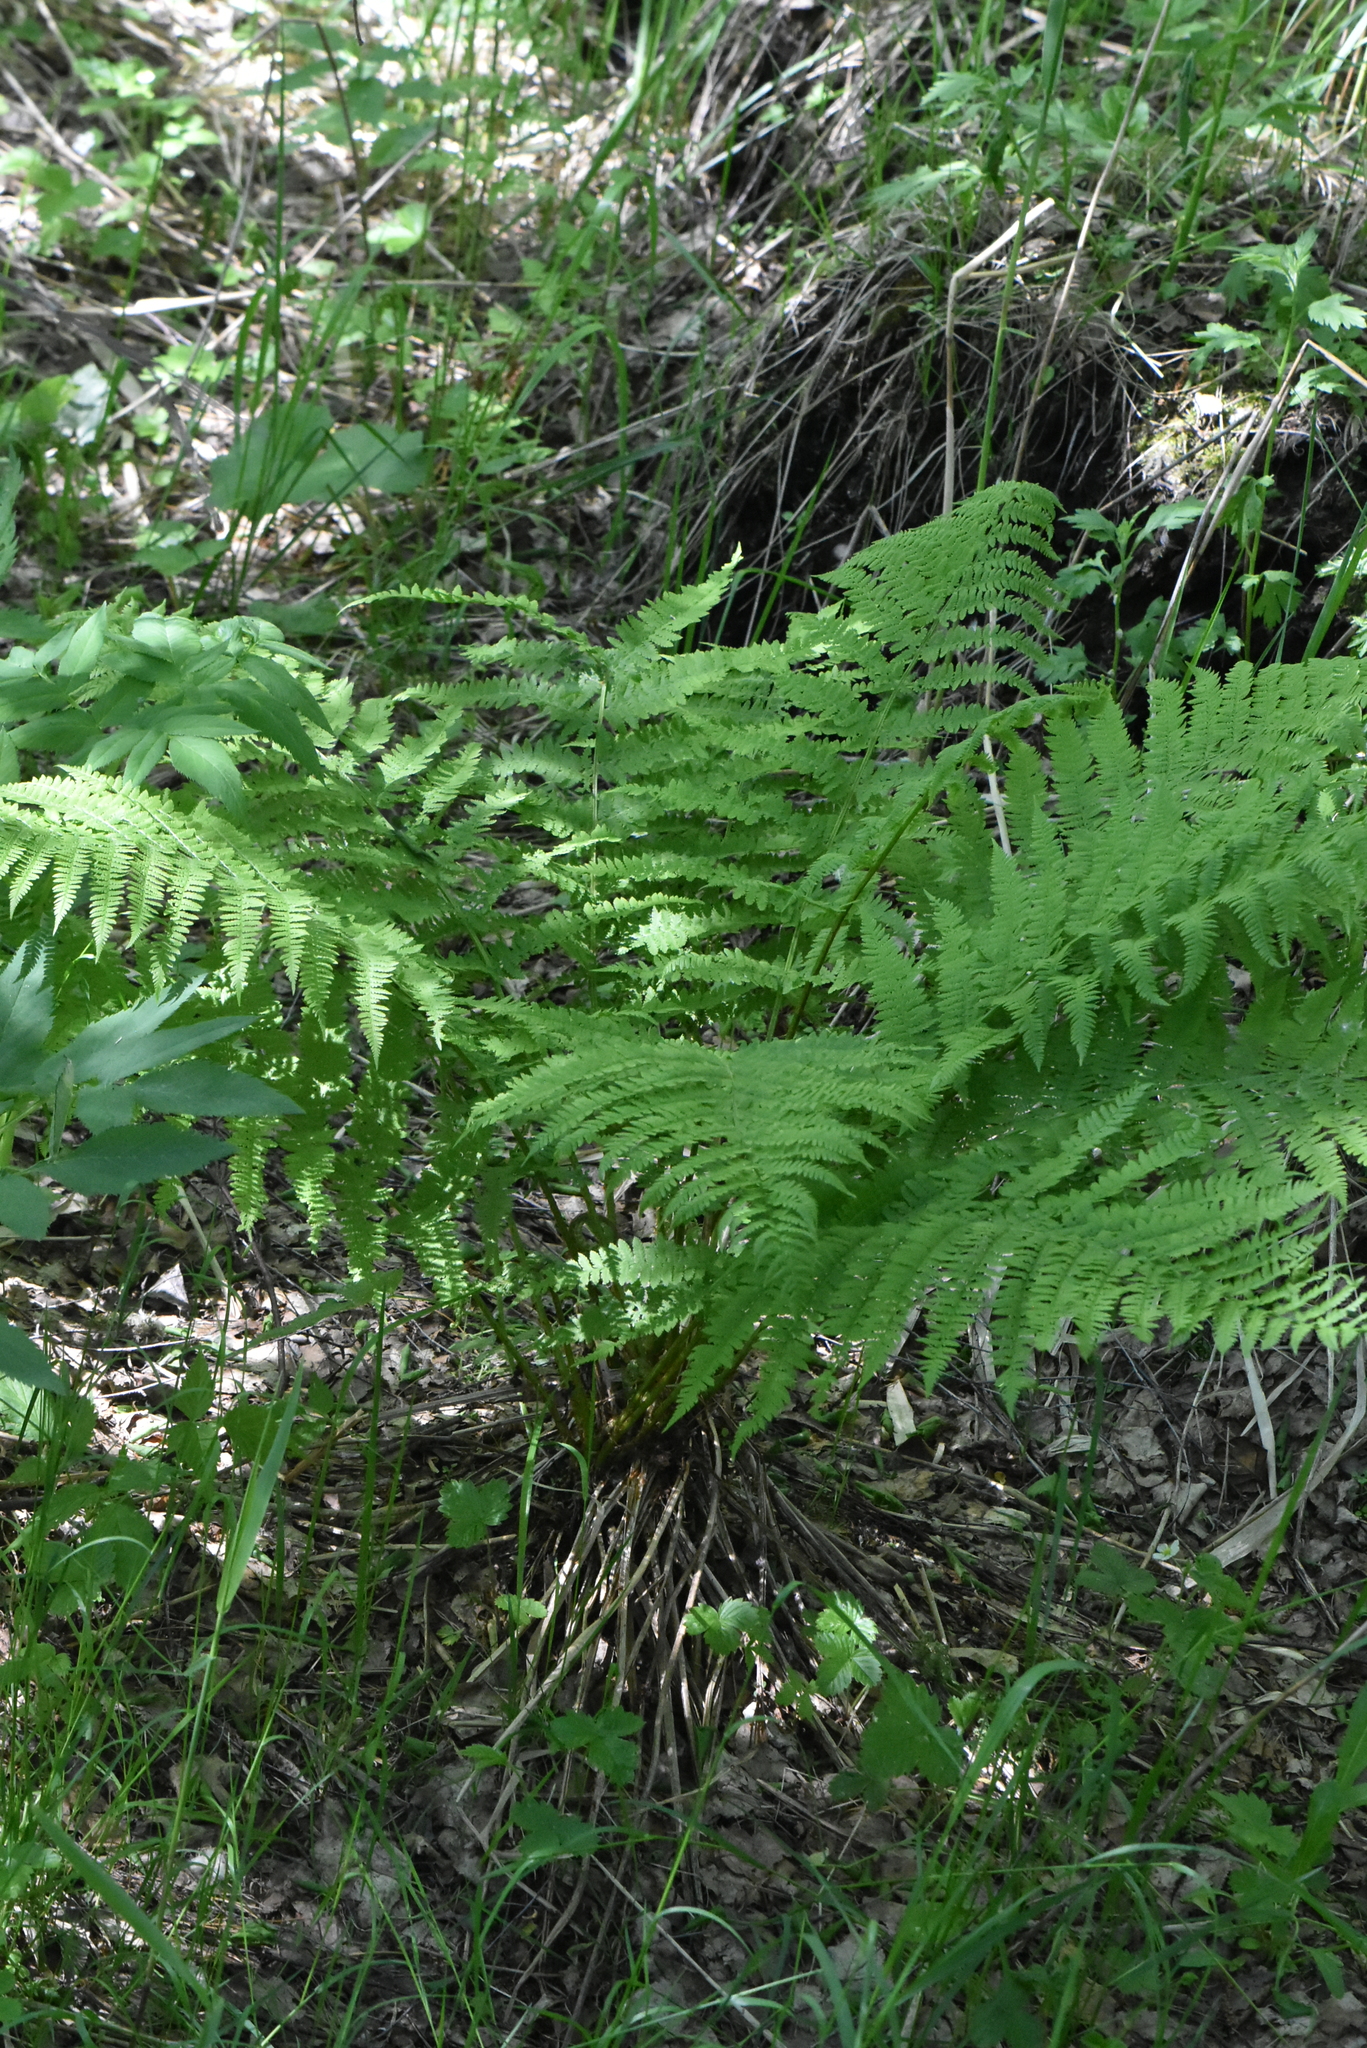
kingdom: Plantae
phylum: Tracheophyta
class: Polypodiopsida
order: Polypodiales
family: Athyriaceae
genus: Athyrium
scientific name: Athyrium filix-femina
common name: Lady fern
